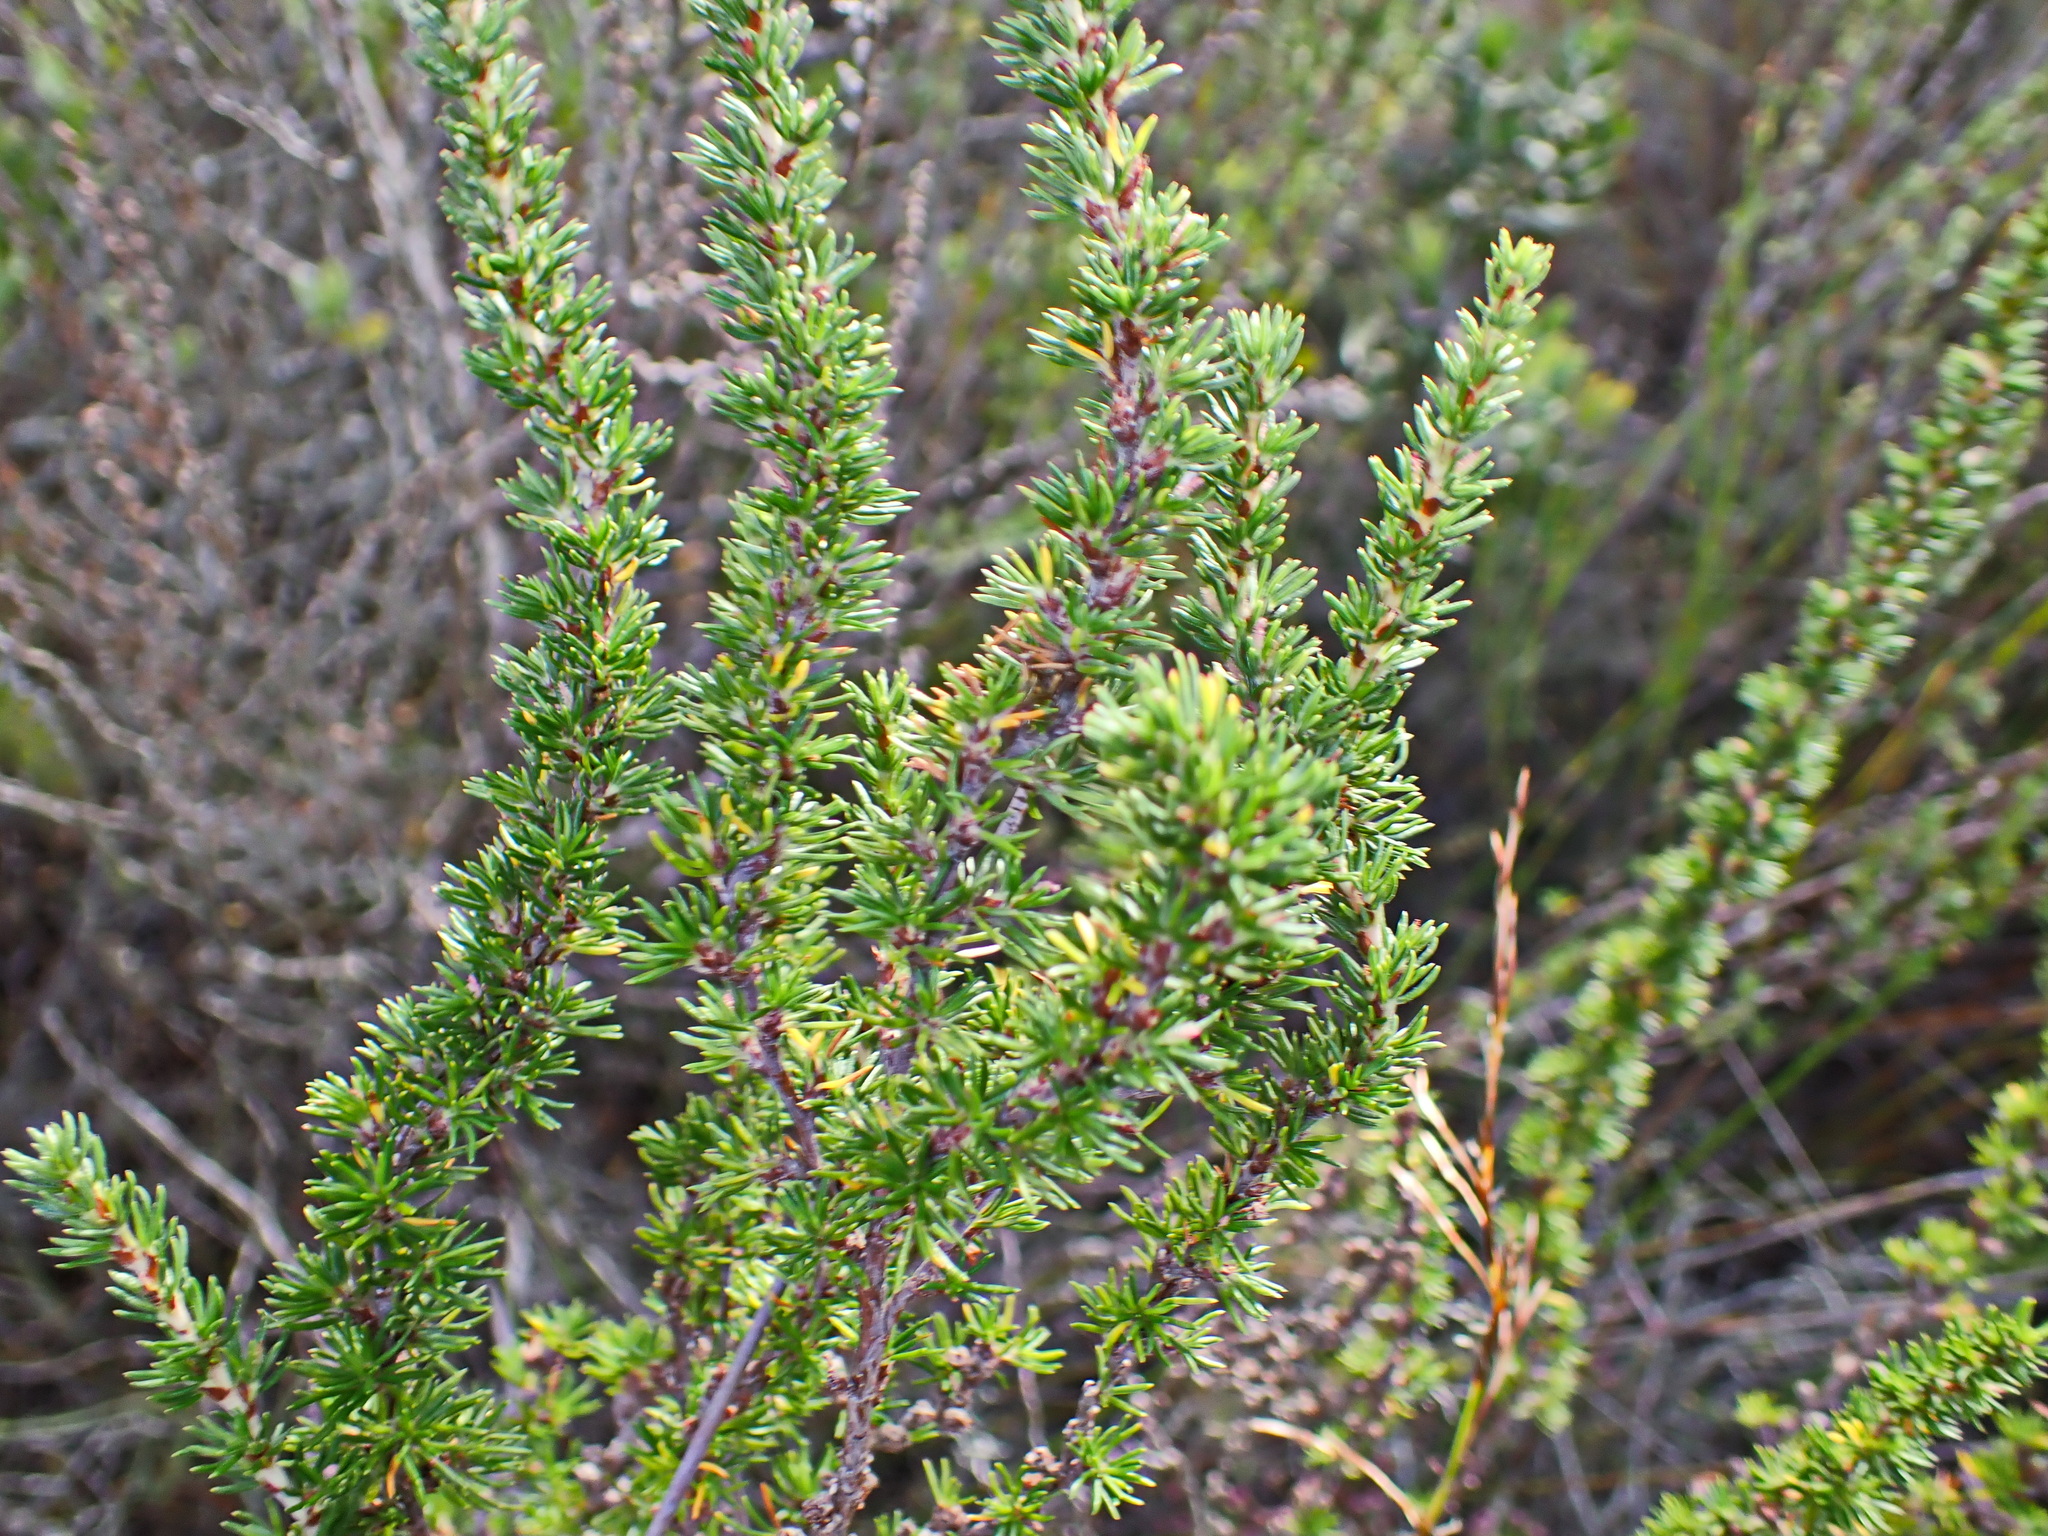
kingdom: Plantae
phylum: Tracheophyta
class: Magnoliopsida
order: Rosales
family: Rosaceae
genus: Cliffortia
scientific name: Cliffortia stricta
